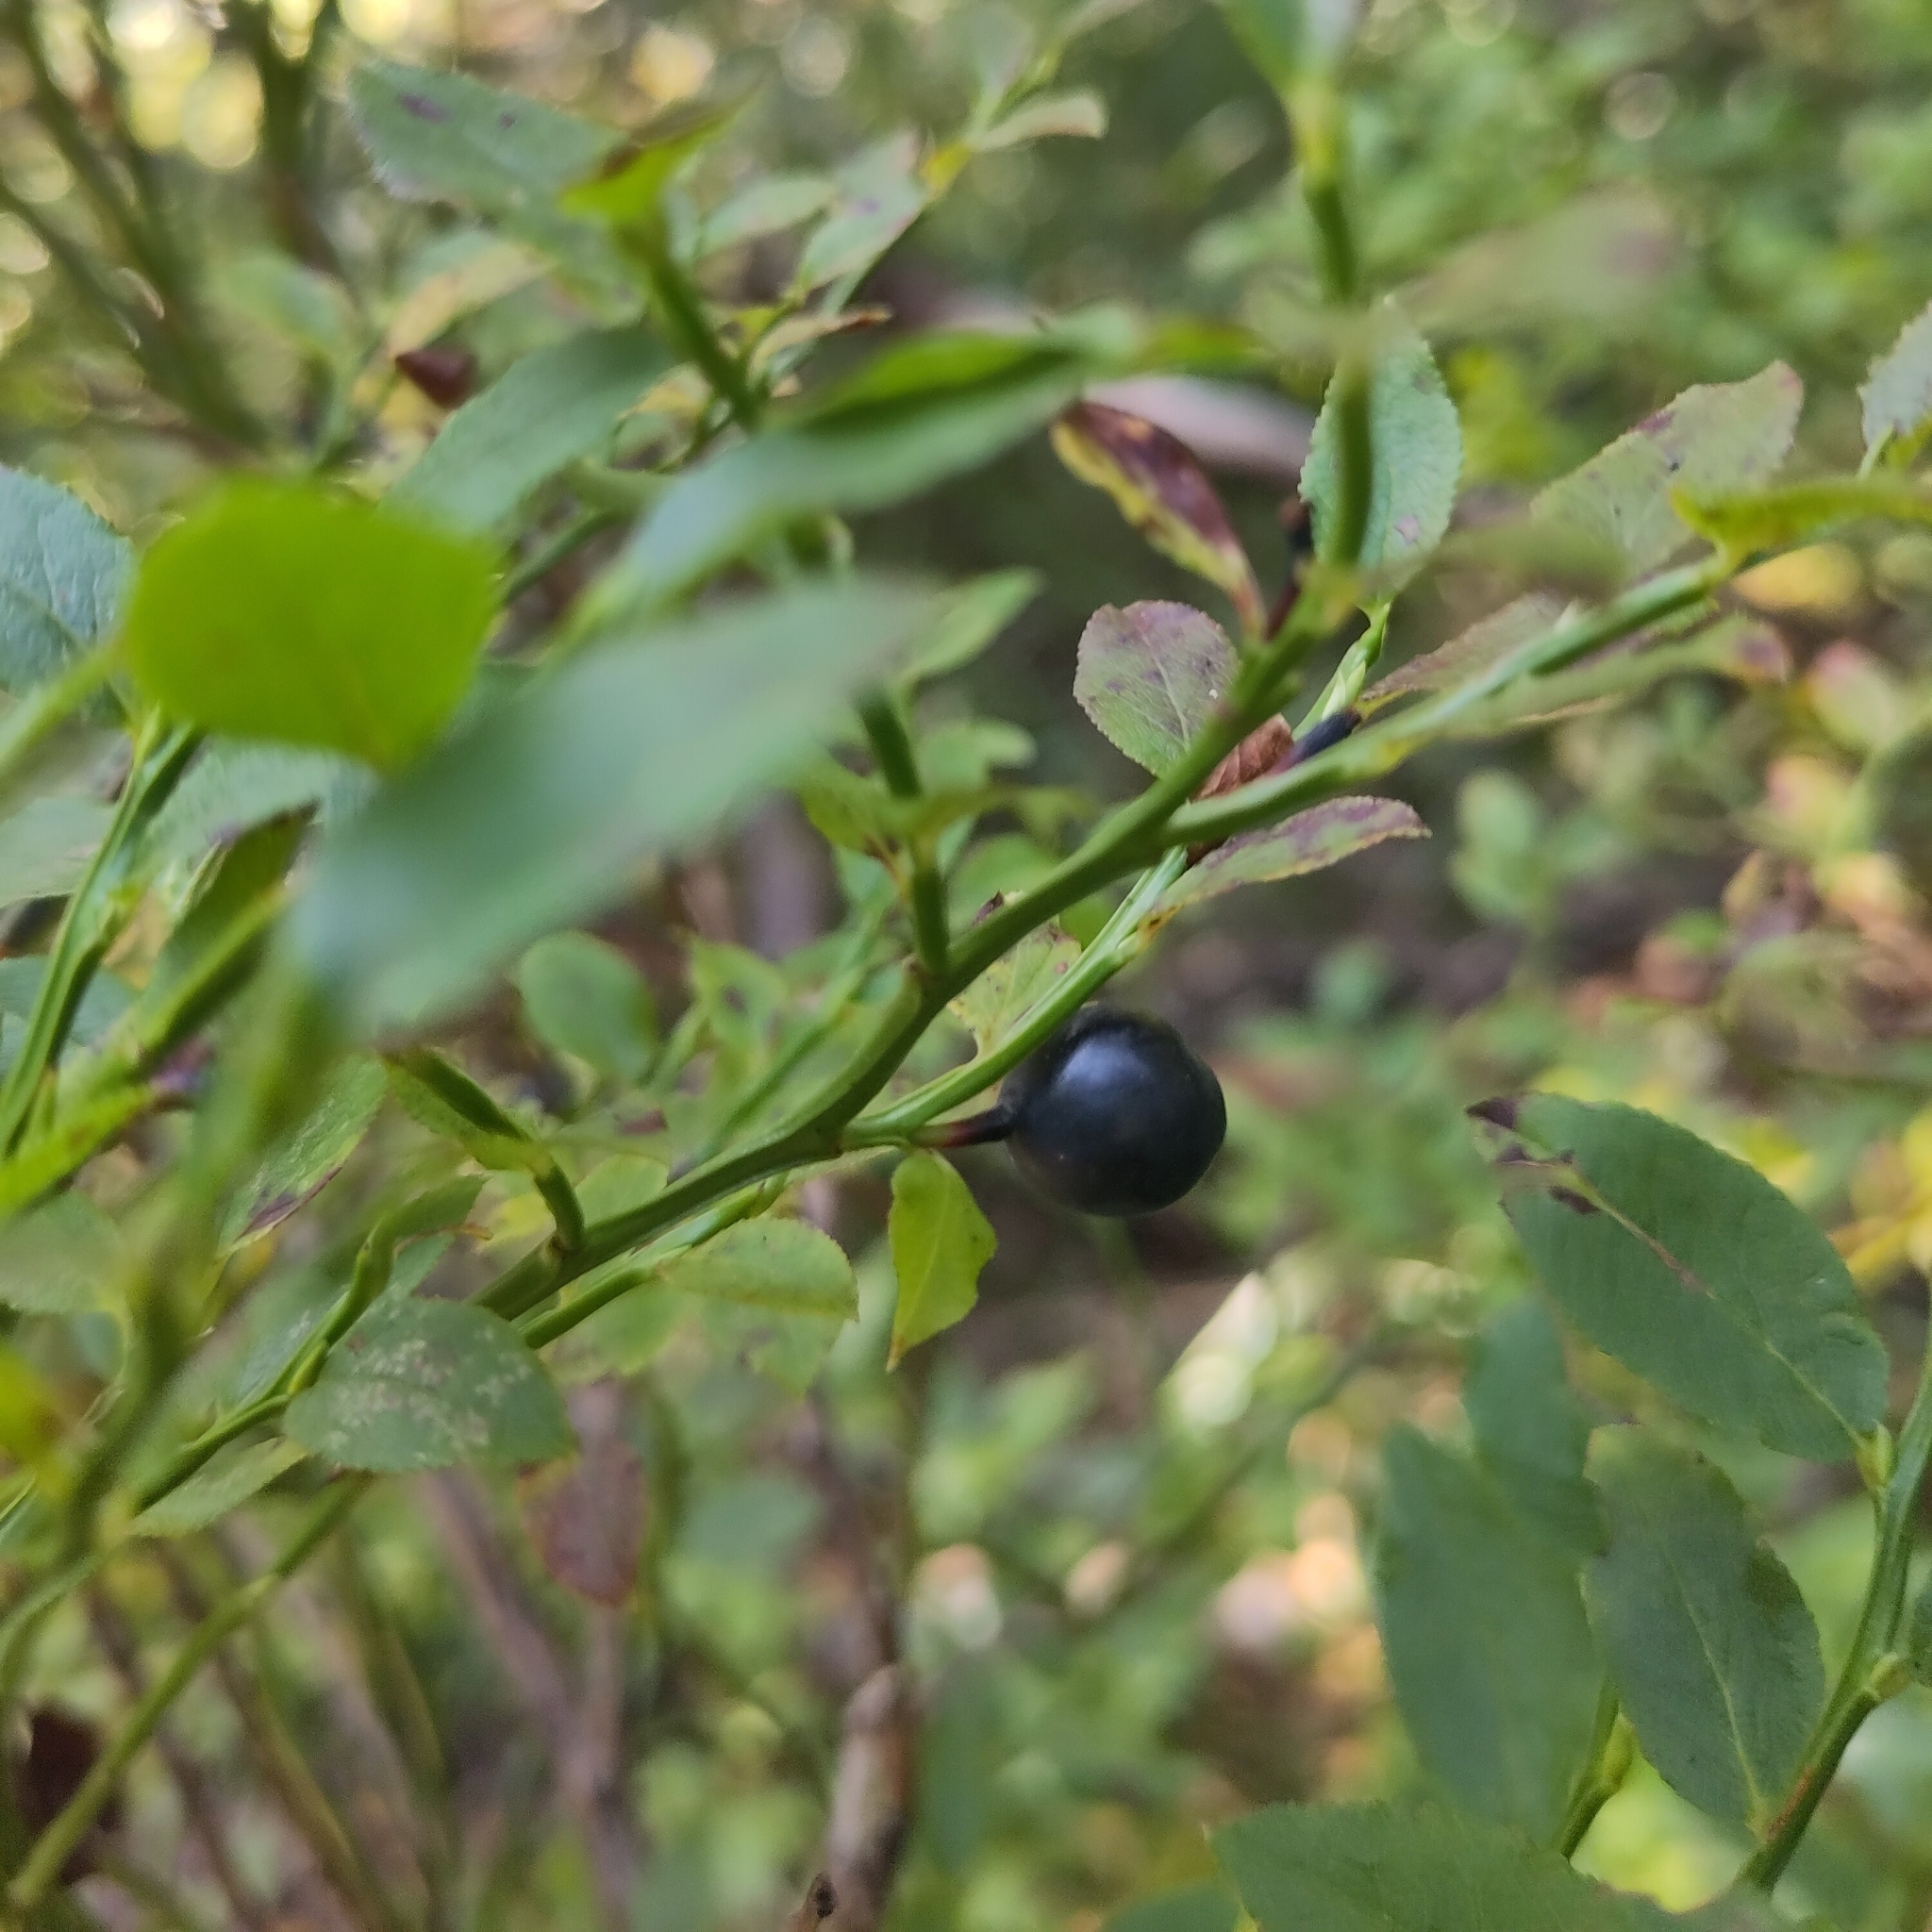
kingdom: Plantae
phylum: Tracheophyta
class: Magnoliopsida
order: Ericales
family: Ericaceae
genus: Vaccinium
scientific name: Vaccinium myrtillus
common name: Bilberry
